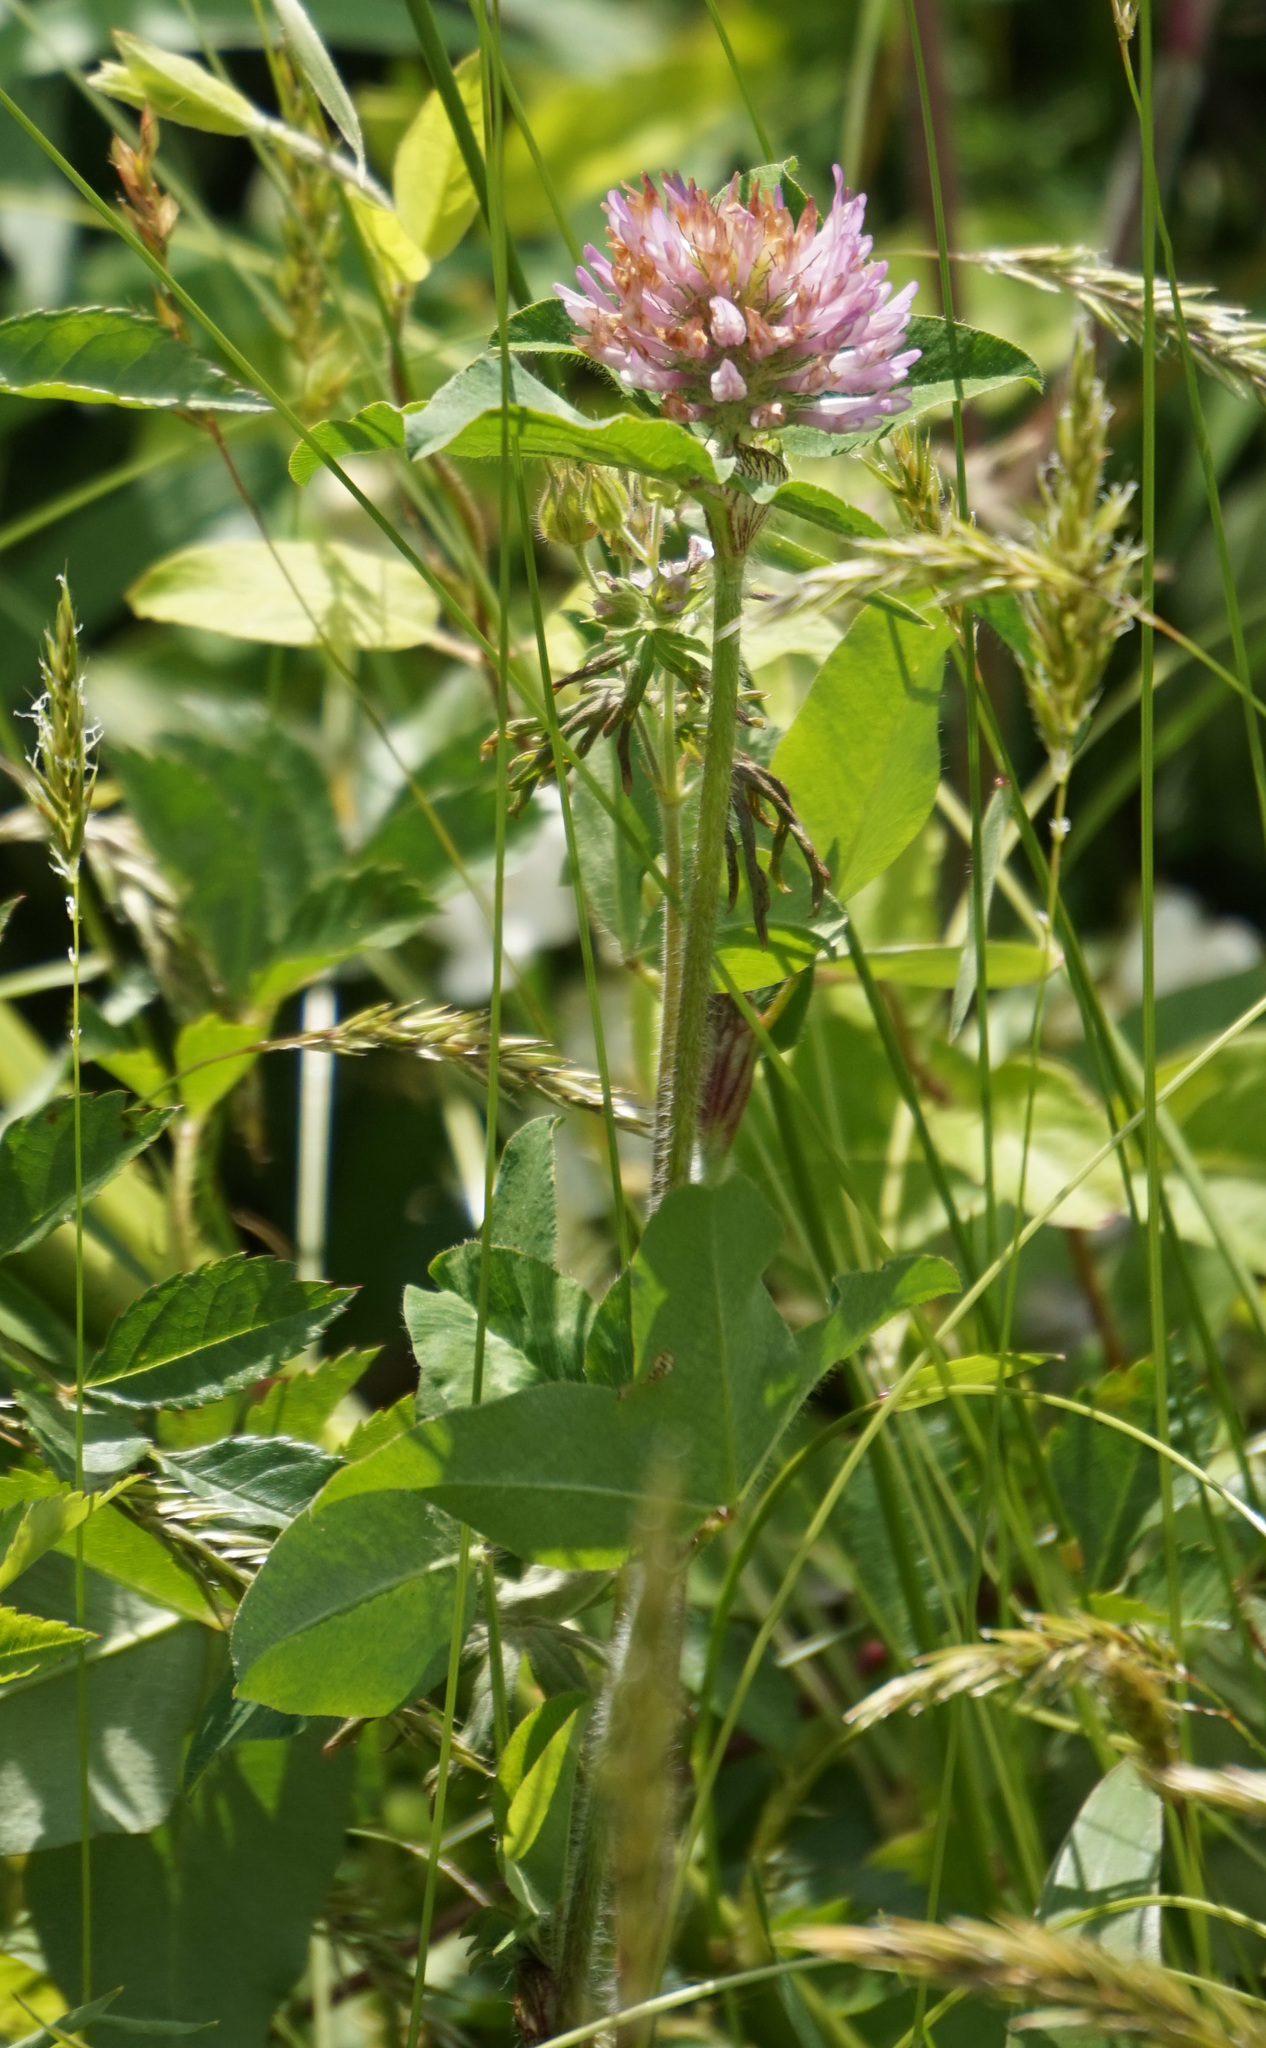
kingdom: Plantae
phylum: Tracheophyta
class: Magnoliopsida
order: Fabales
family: Fabaceae
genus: Trifolium
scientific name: Trifolium pratense
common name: Red clover
